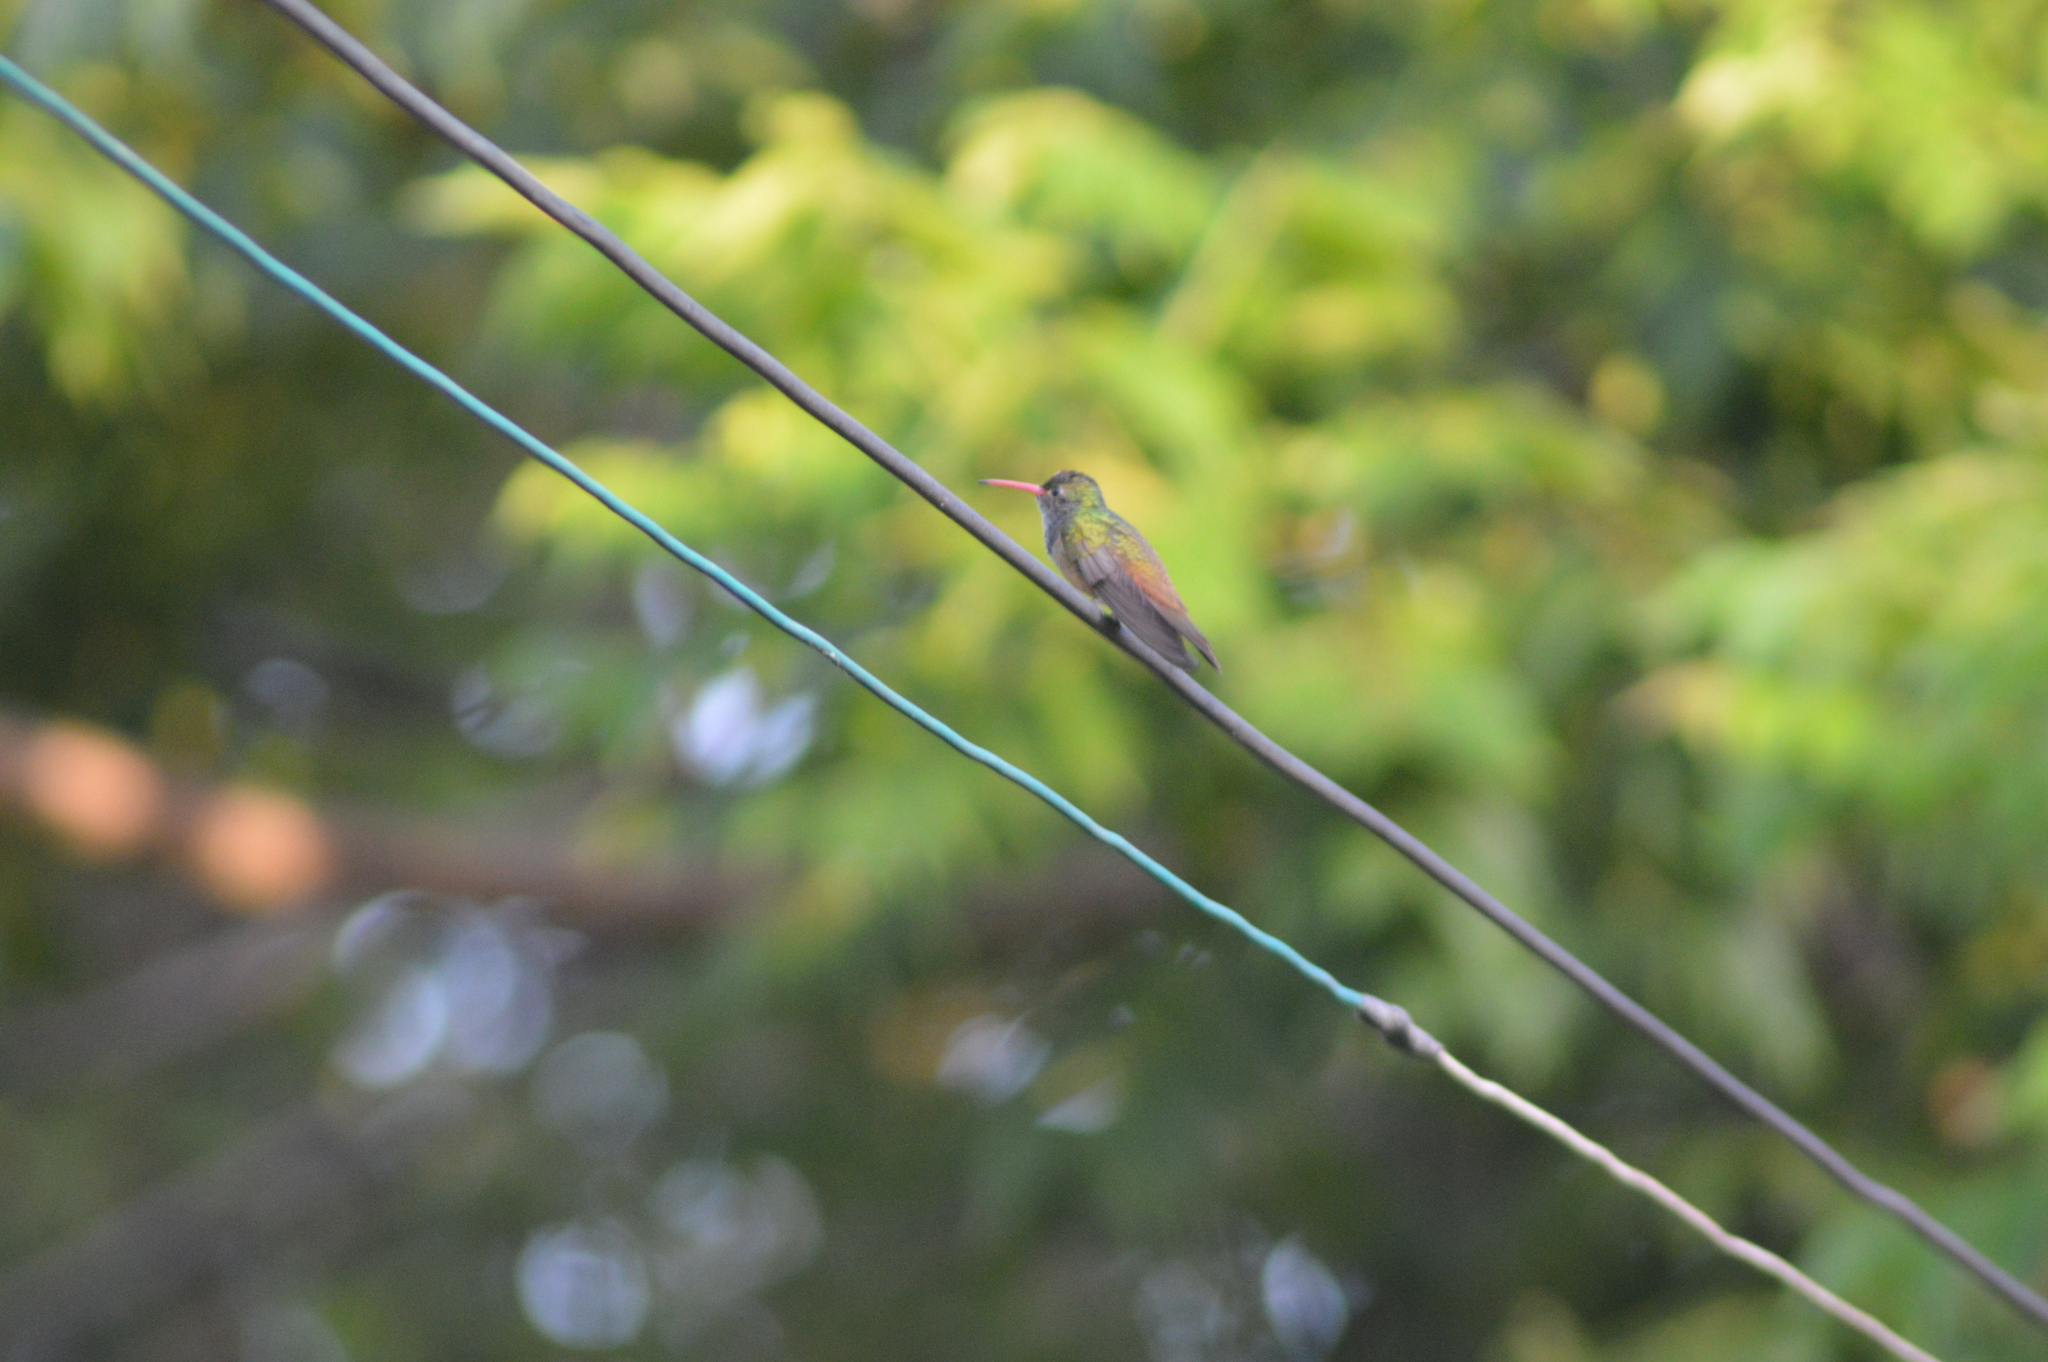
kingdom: Animalia
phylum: Chordata
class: Aves
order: Apodiformes
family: Trochilidae
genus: Amazilia
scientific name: Amazilia yucatanensis
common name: Buff-bellied hummingbird
